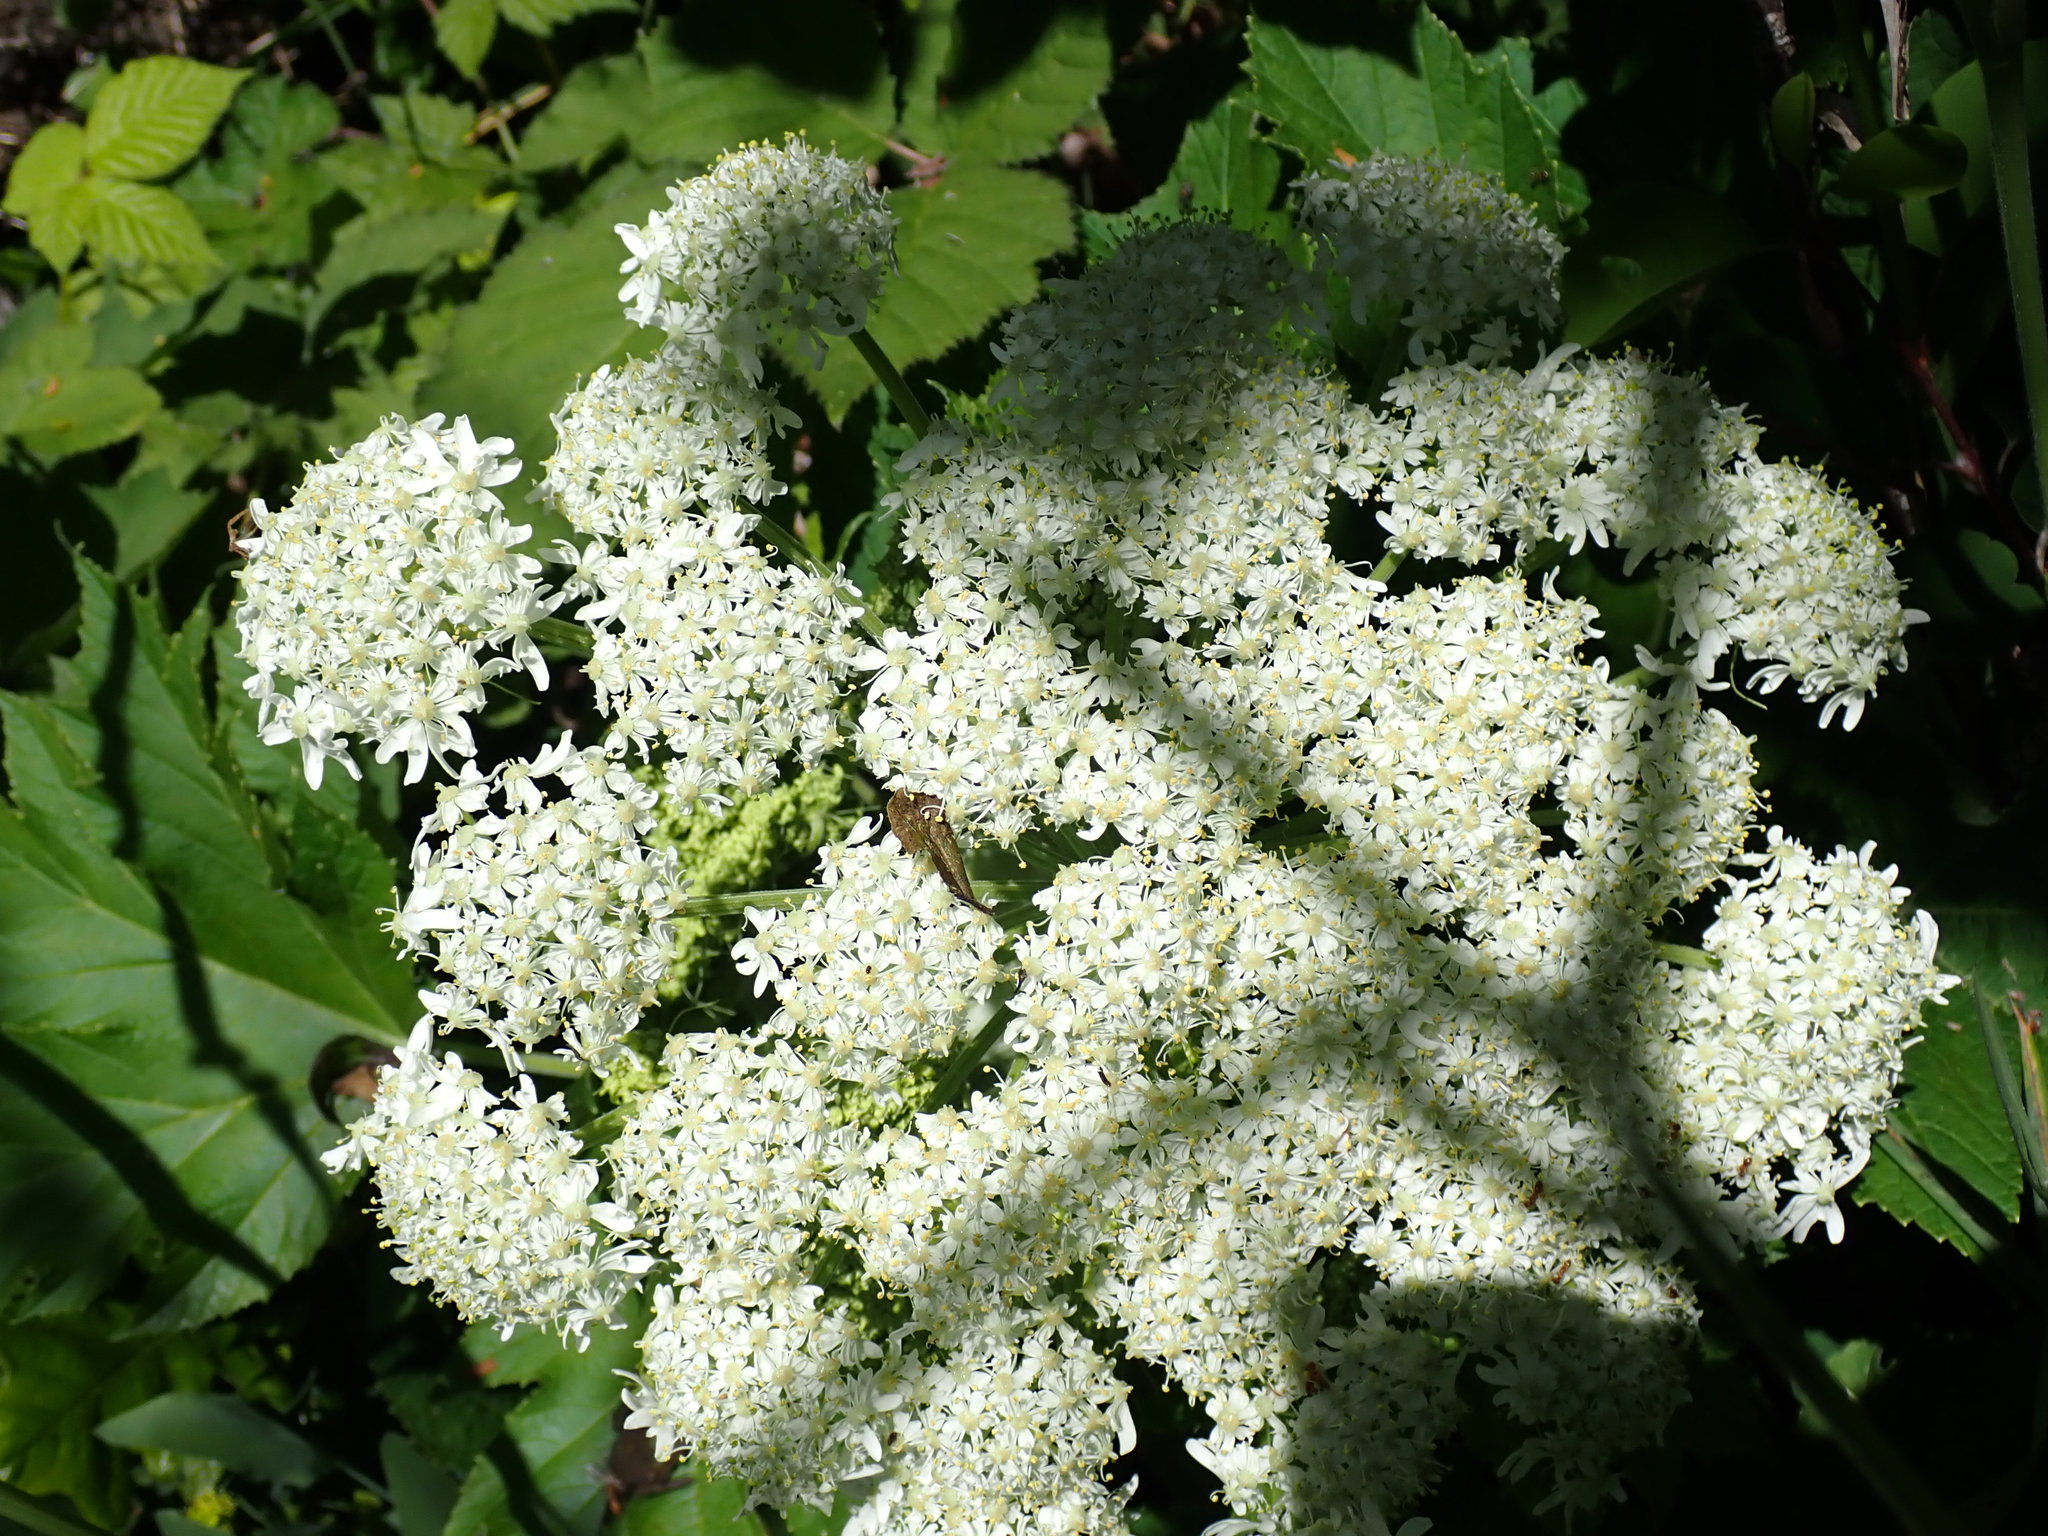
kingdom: Plantae
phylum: Tracheophyta
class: Magnoliopsida
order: Apiales
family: Apiaceae
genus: Heracleum
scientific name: Heracleum maximum
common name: American cow parsnip
